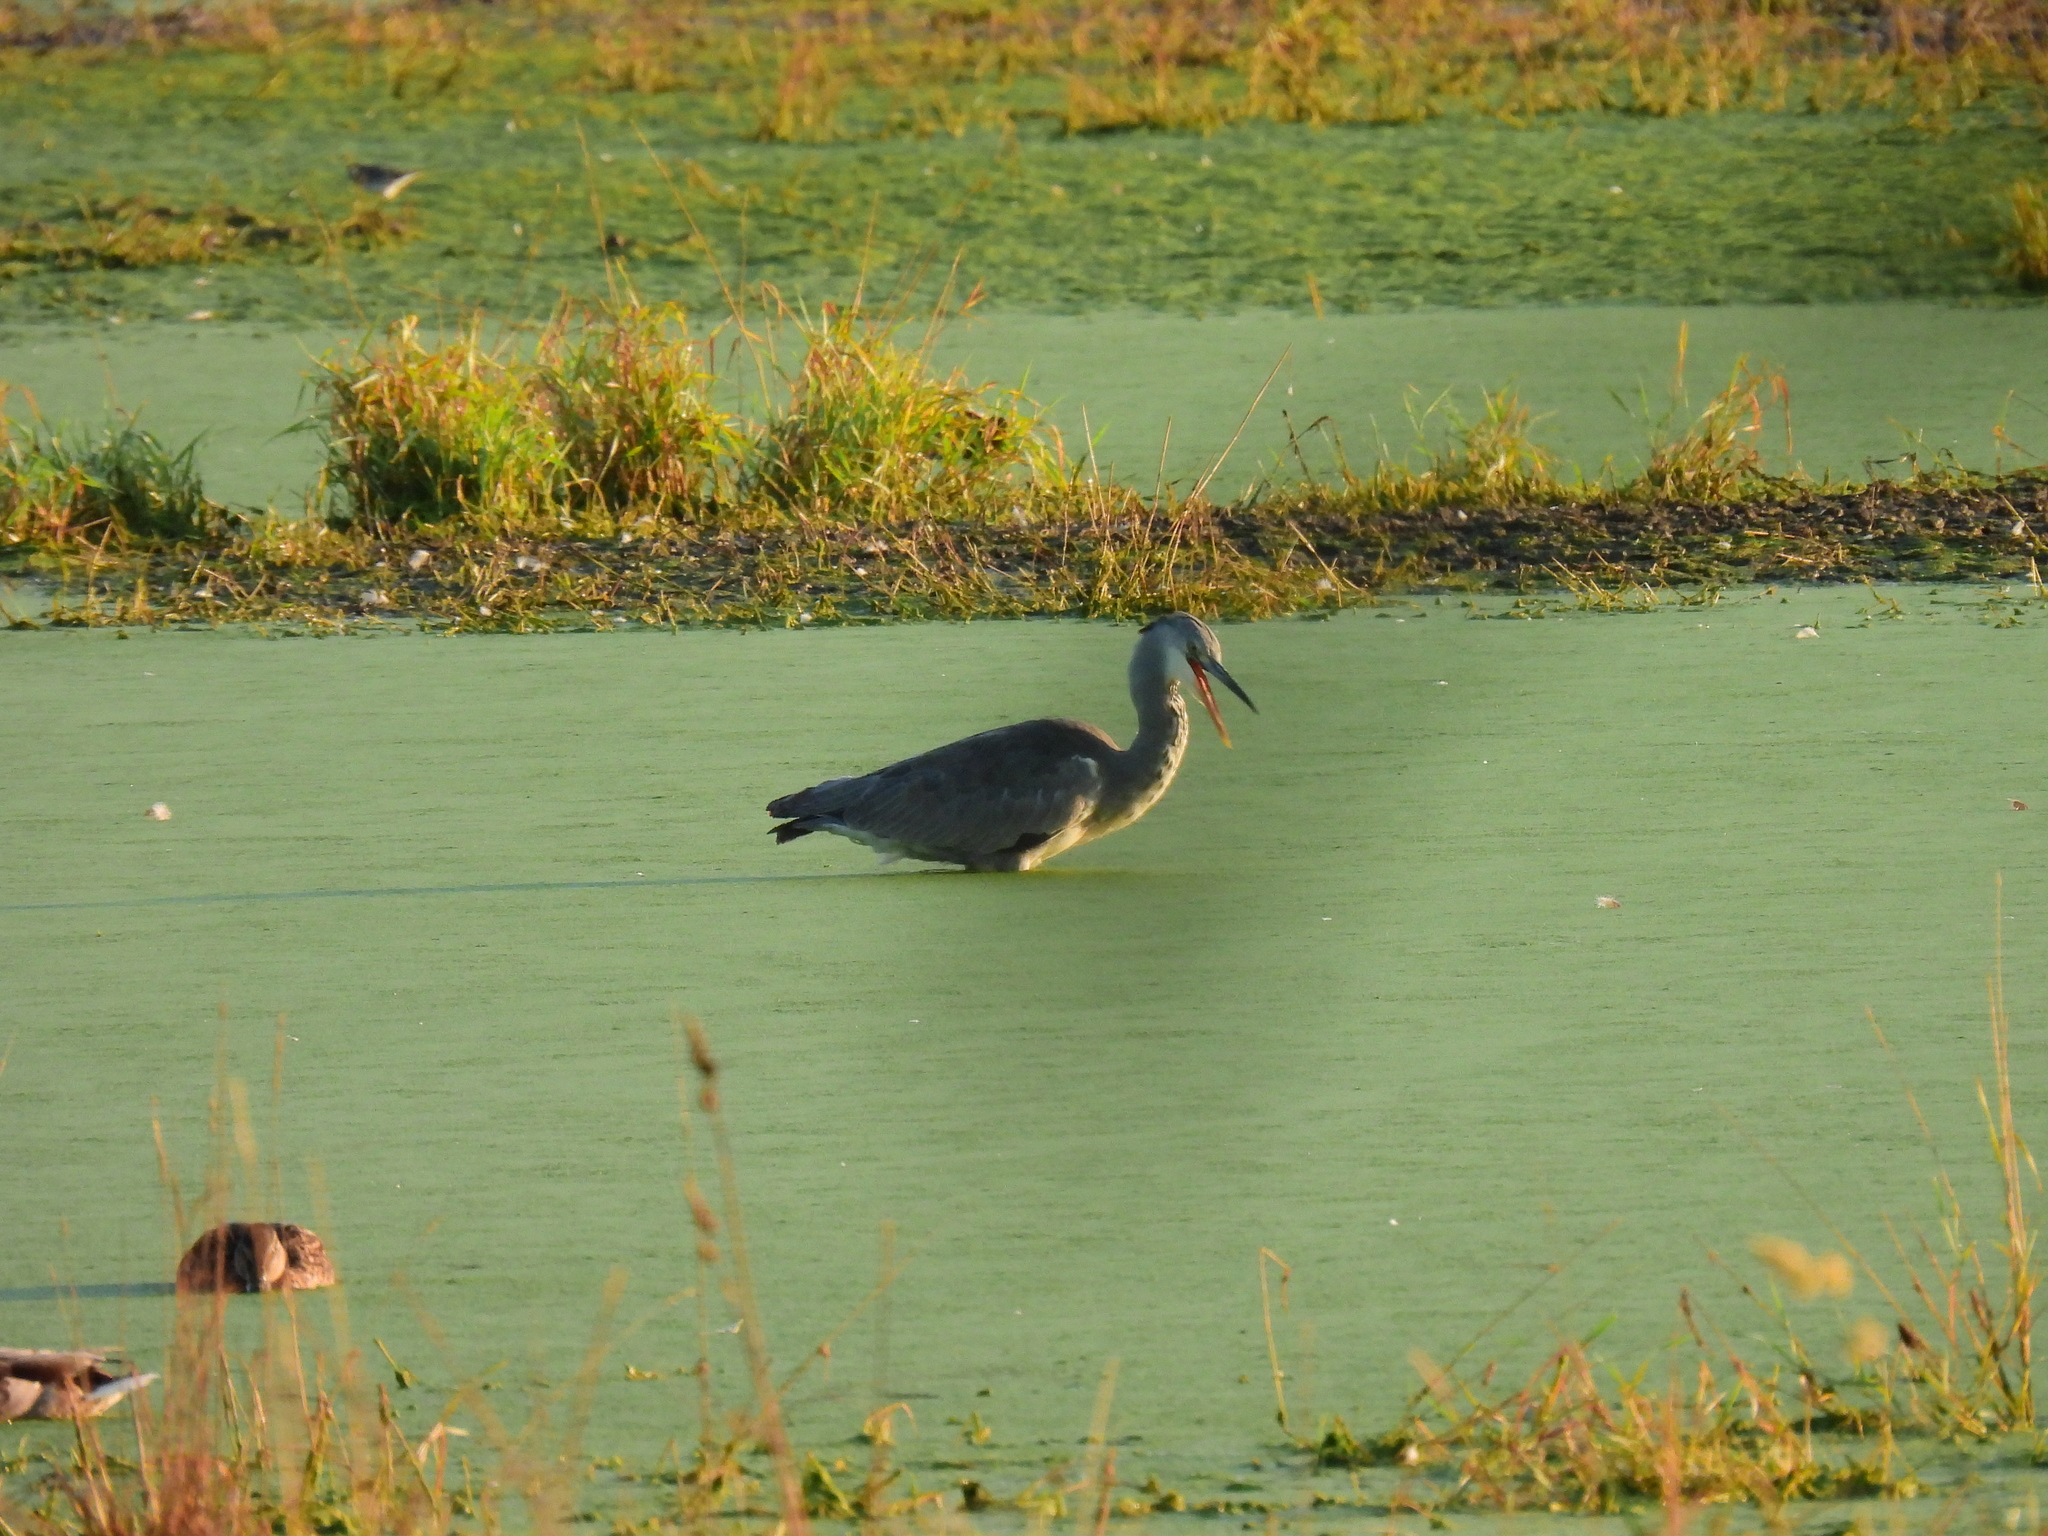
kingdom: Animalia
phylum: Chordata
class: Aves
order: Pelecaniformes
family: Ardeidae
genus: Ardea
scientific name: Ardea cinerea
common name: Grey heron
